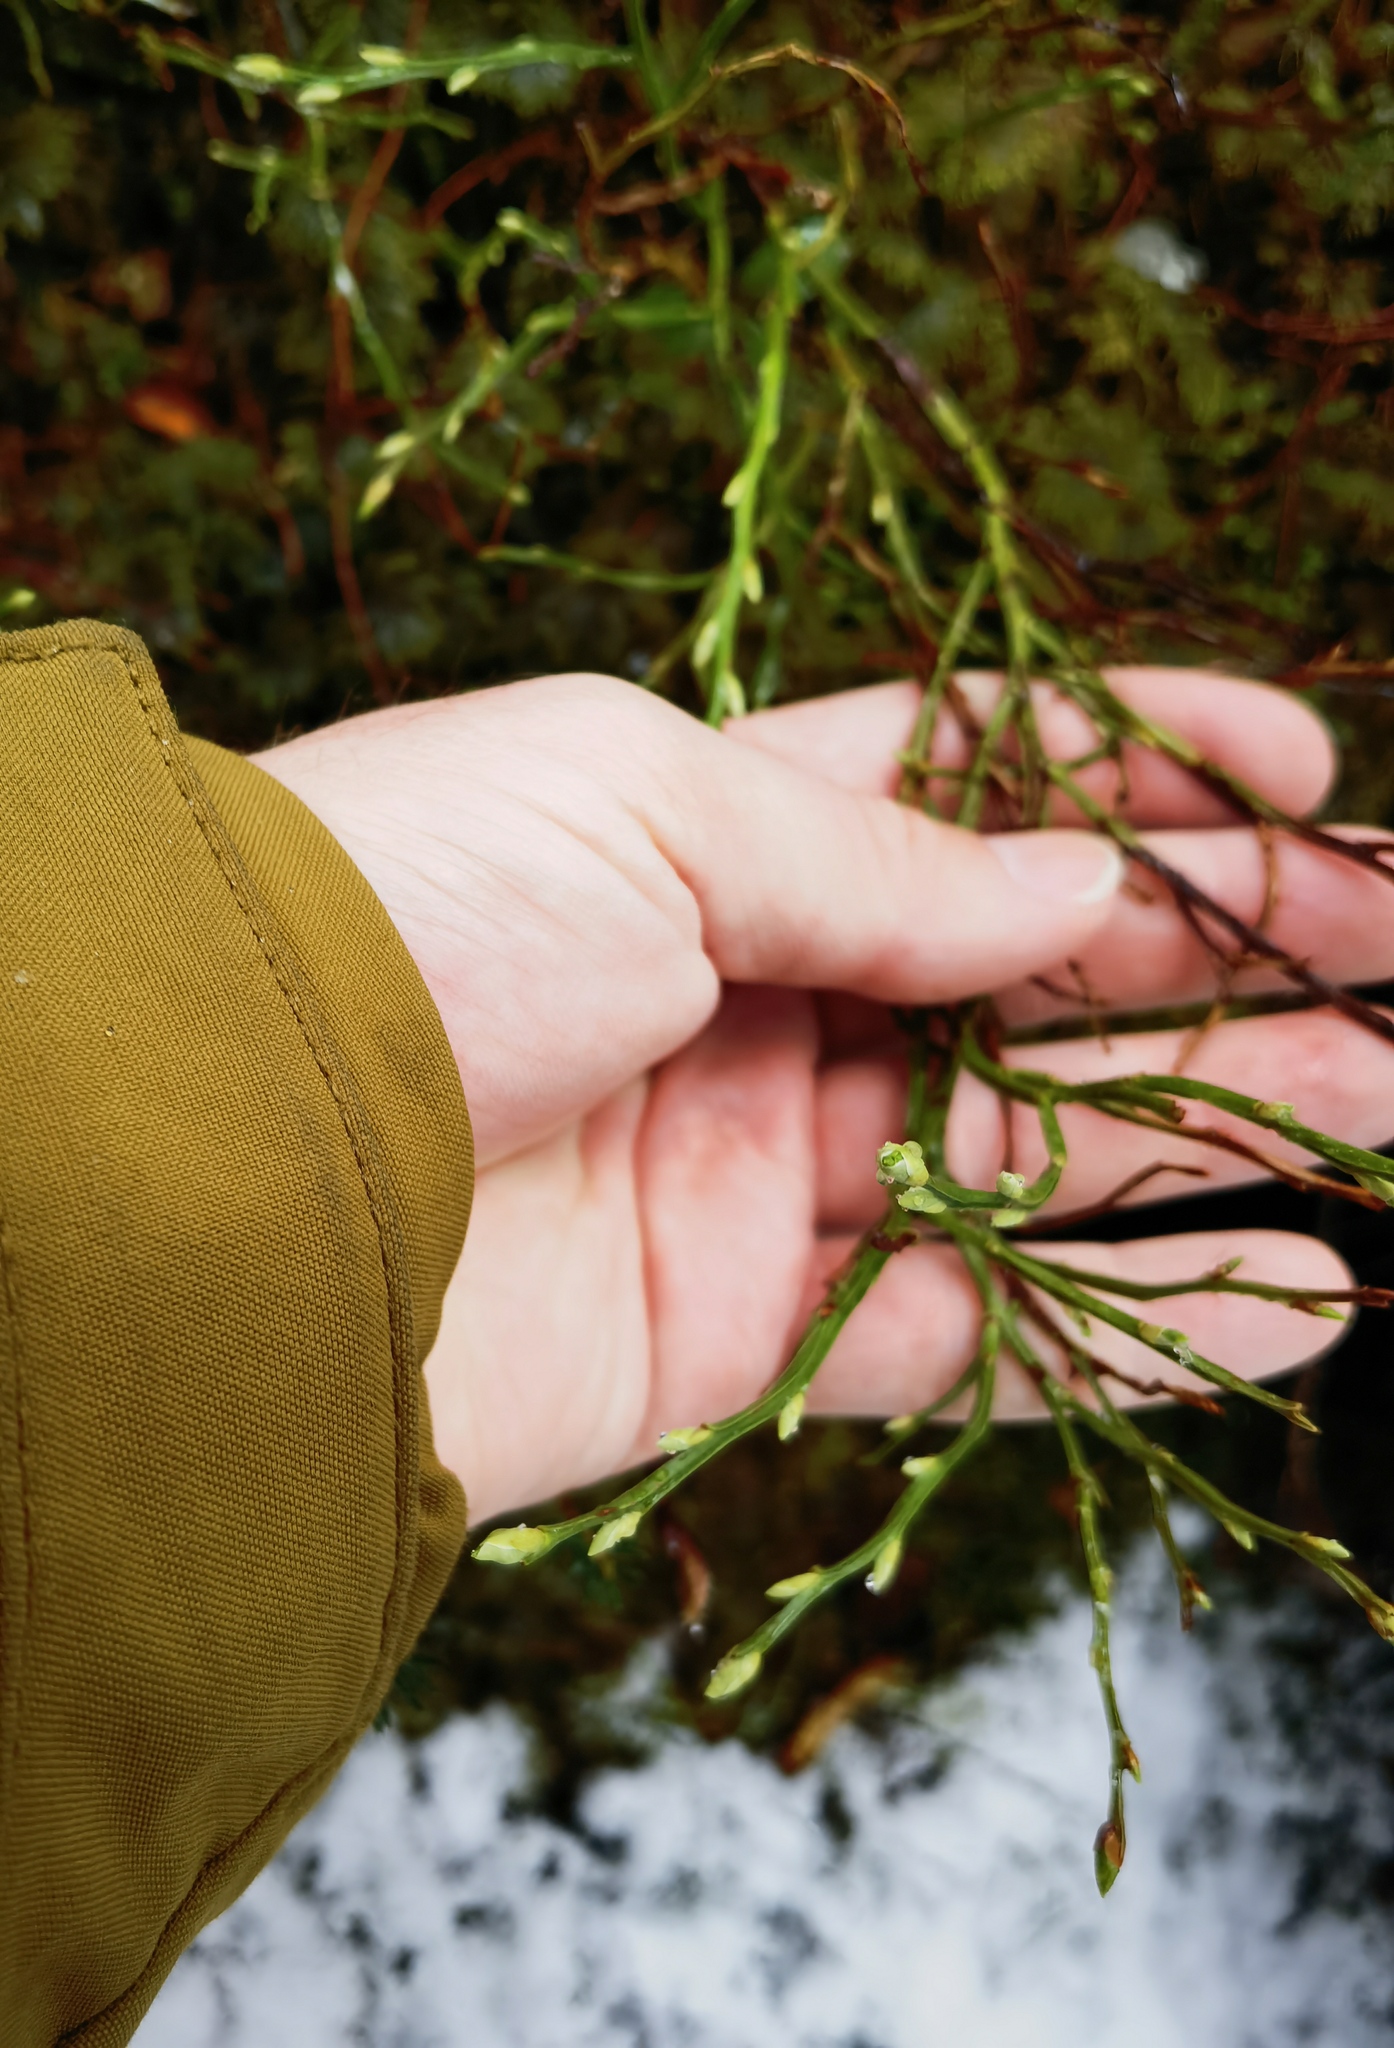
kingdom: Plantae
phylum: Tracheophyta
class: Magnoliopsida
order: Ericales
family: Ericaceae
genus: Vaccinium
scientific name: Vaccinium myrtillus
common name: Bilberry
